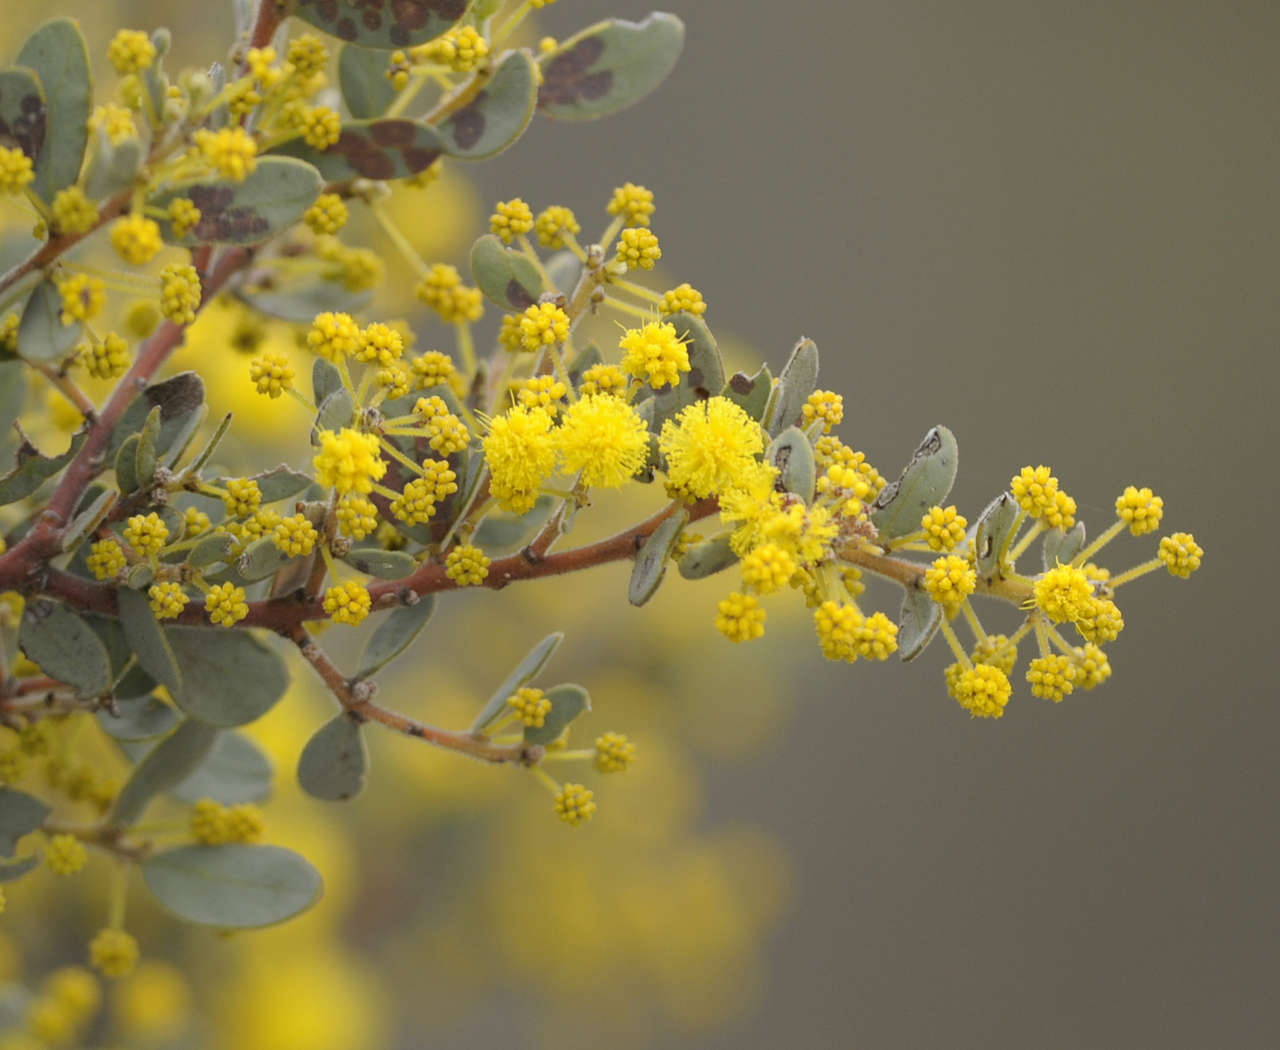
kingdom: Plantae
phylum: Tracheophyta
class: Magnoliopsida
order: Fabales
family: Fabaceae
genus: Acacia
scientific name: Acacia brachybotrya
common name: Grey mulga
